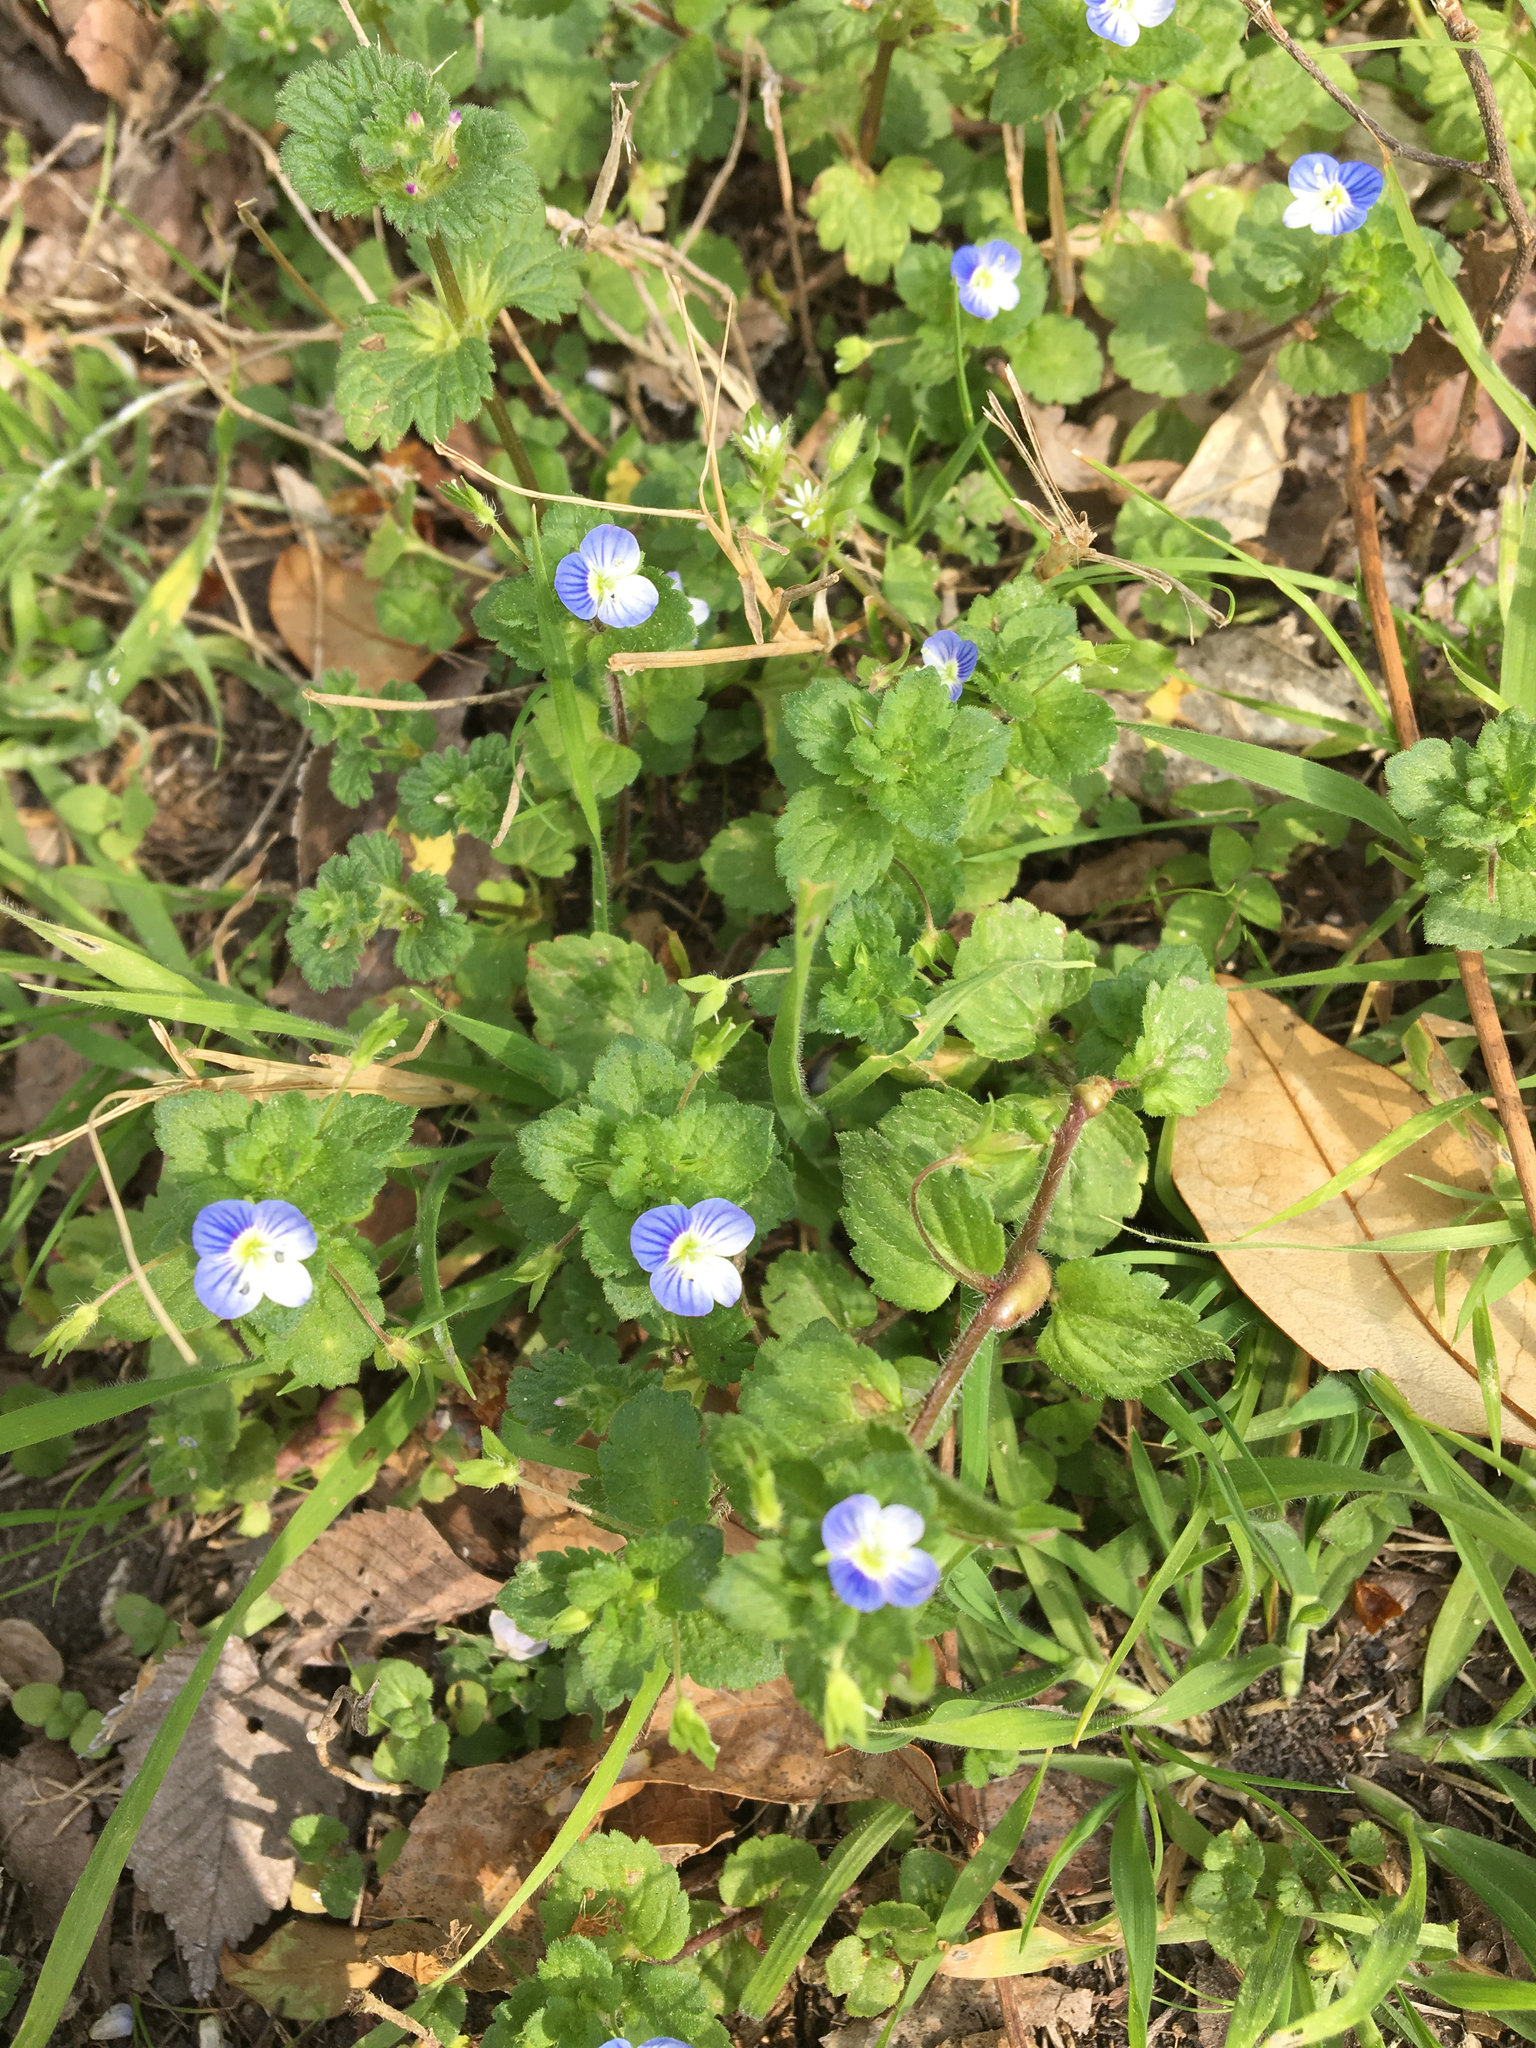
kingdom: Plantae
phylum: Tracheophyta
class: Magnoliopsida
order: Lamiales
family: Plantaginaceae
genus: Veronica
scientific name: Veronica persica
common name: Common field-speedwell
